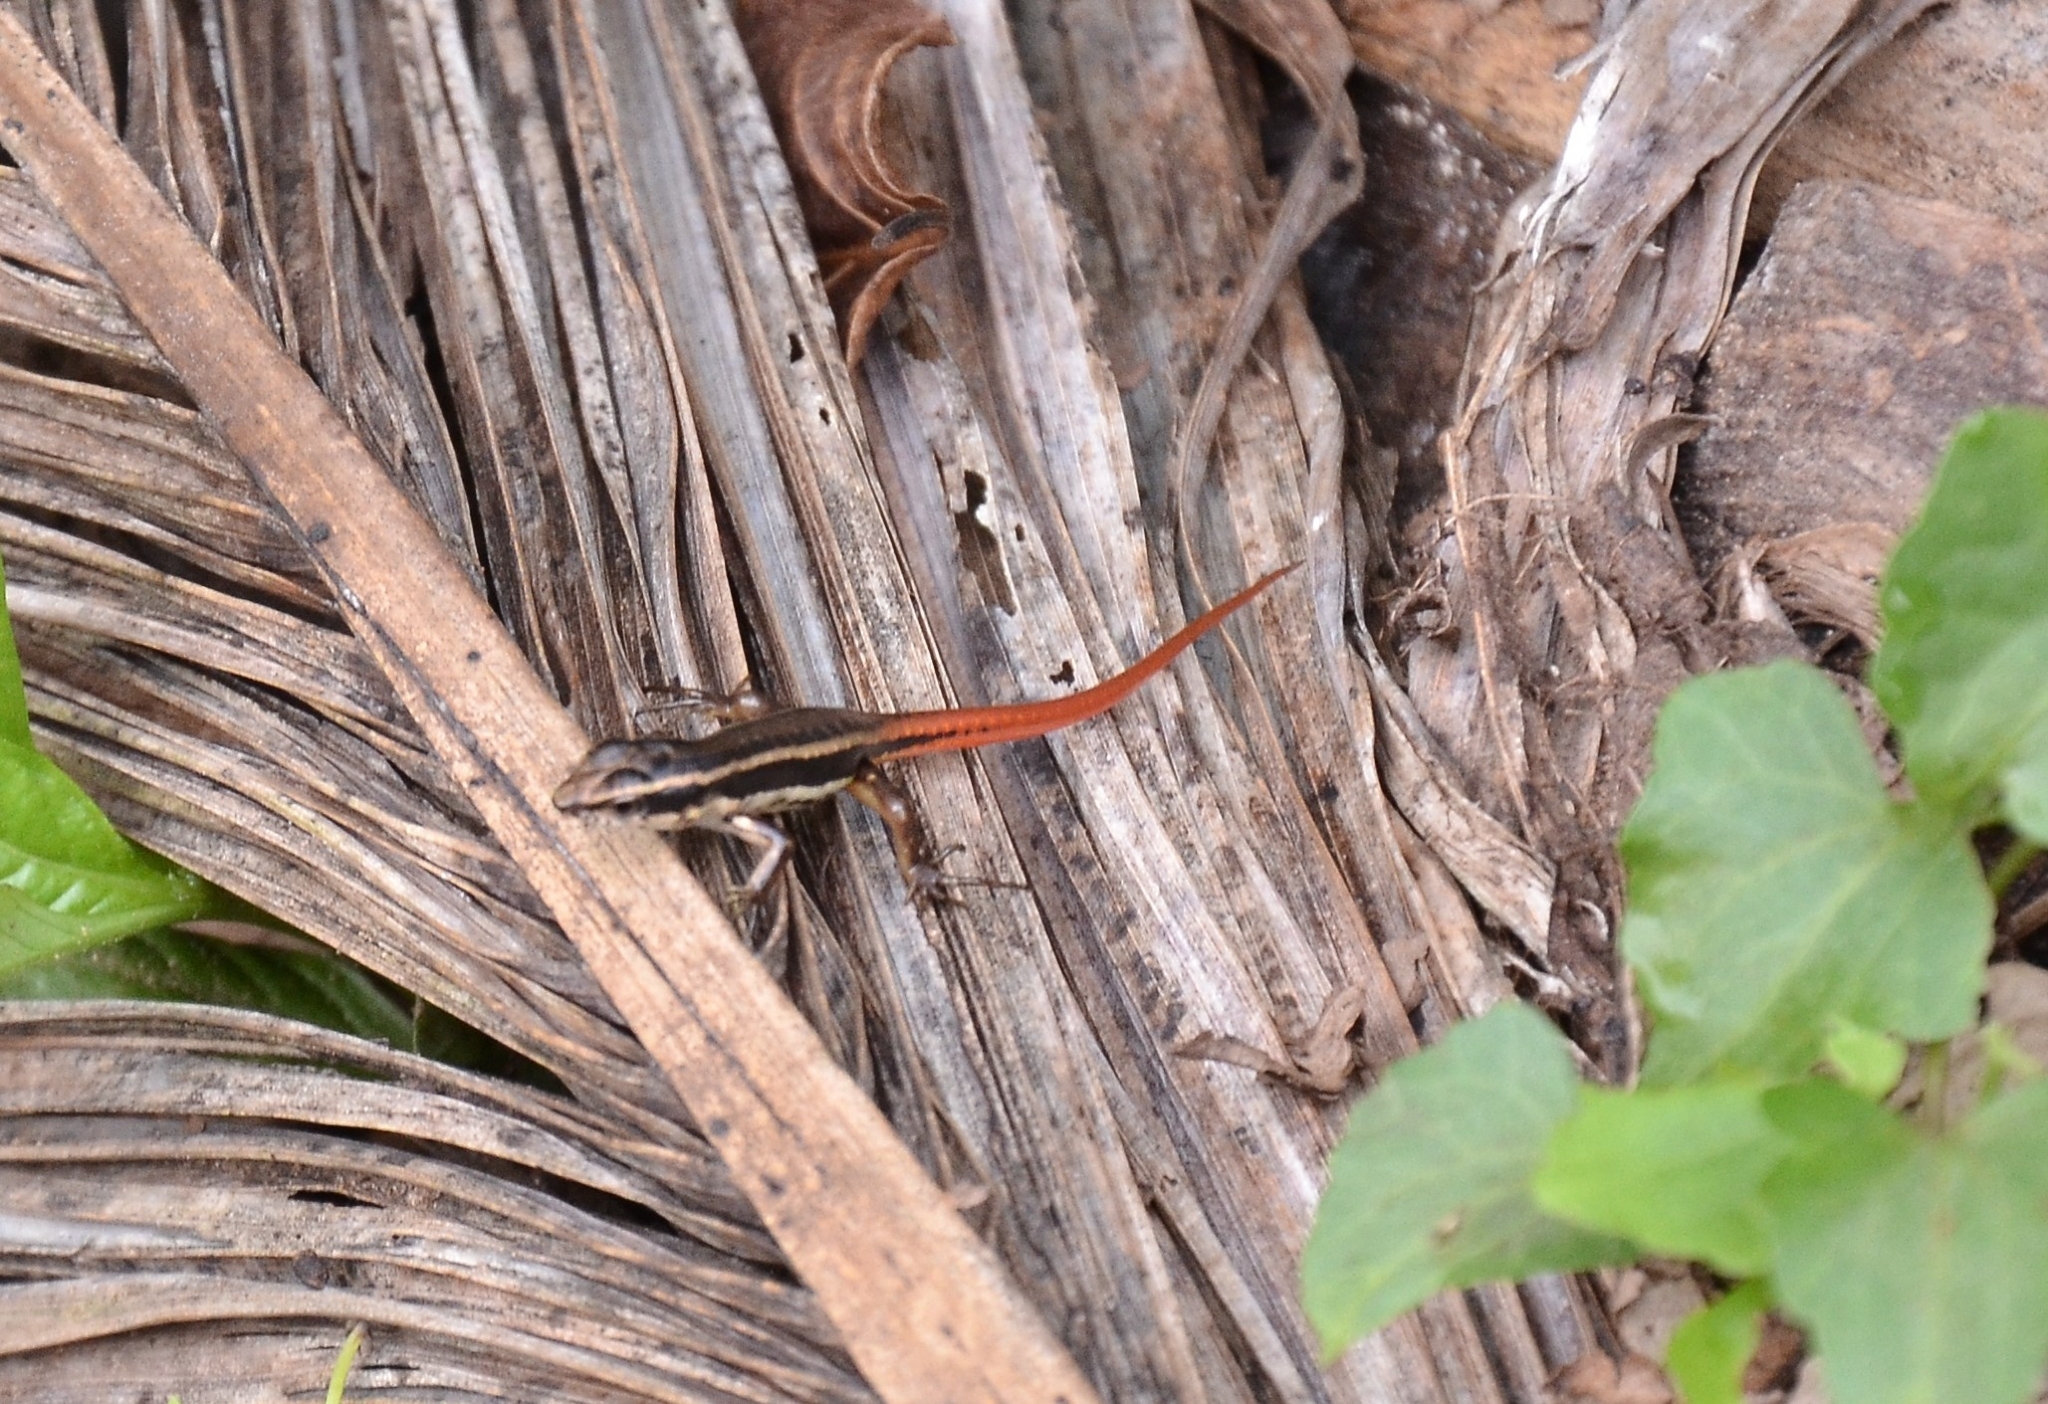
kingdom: Animalia
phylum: Chordata
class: Squamata
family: Scincidae
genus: Sphenomorphus
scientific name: Sphenomorphus dussumieri
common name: Dussumier's forest skink
